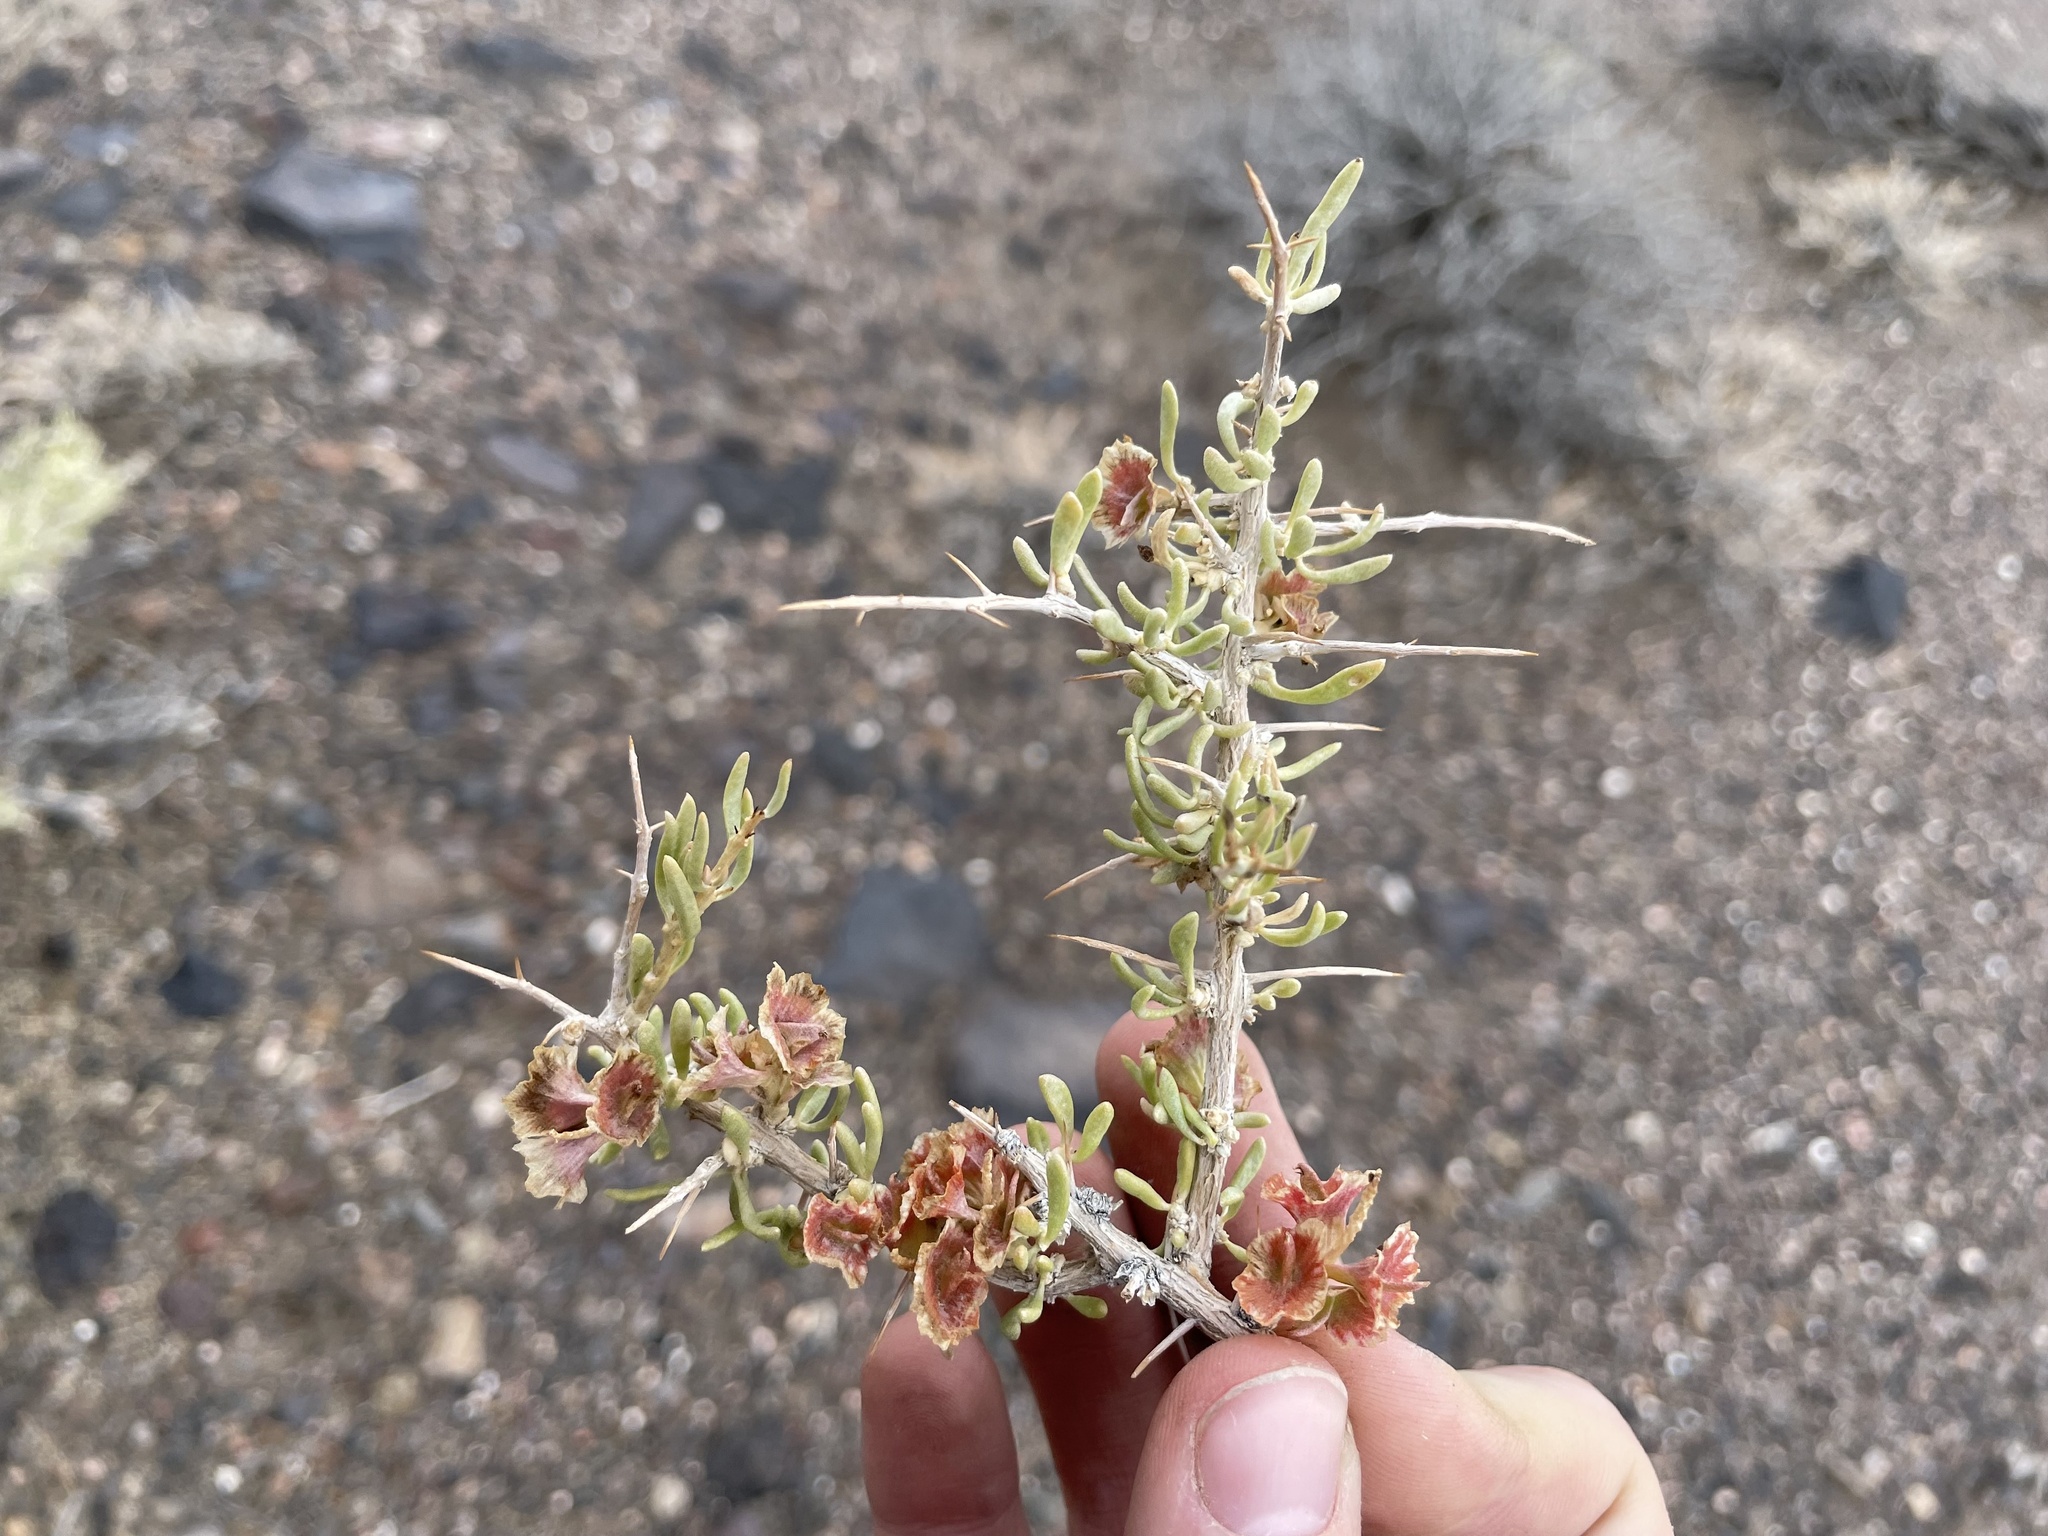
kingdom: Plantae
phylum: Tracheophyta
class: Magnoliopsida
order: Caryophyllales
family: Sarcobataceae
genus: Sarcobatus
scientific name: Sarcobatus baileyi
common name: Bailey greasewood
